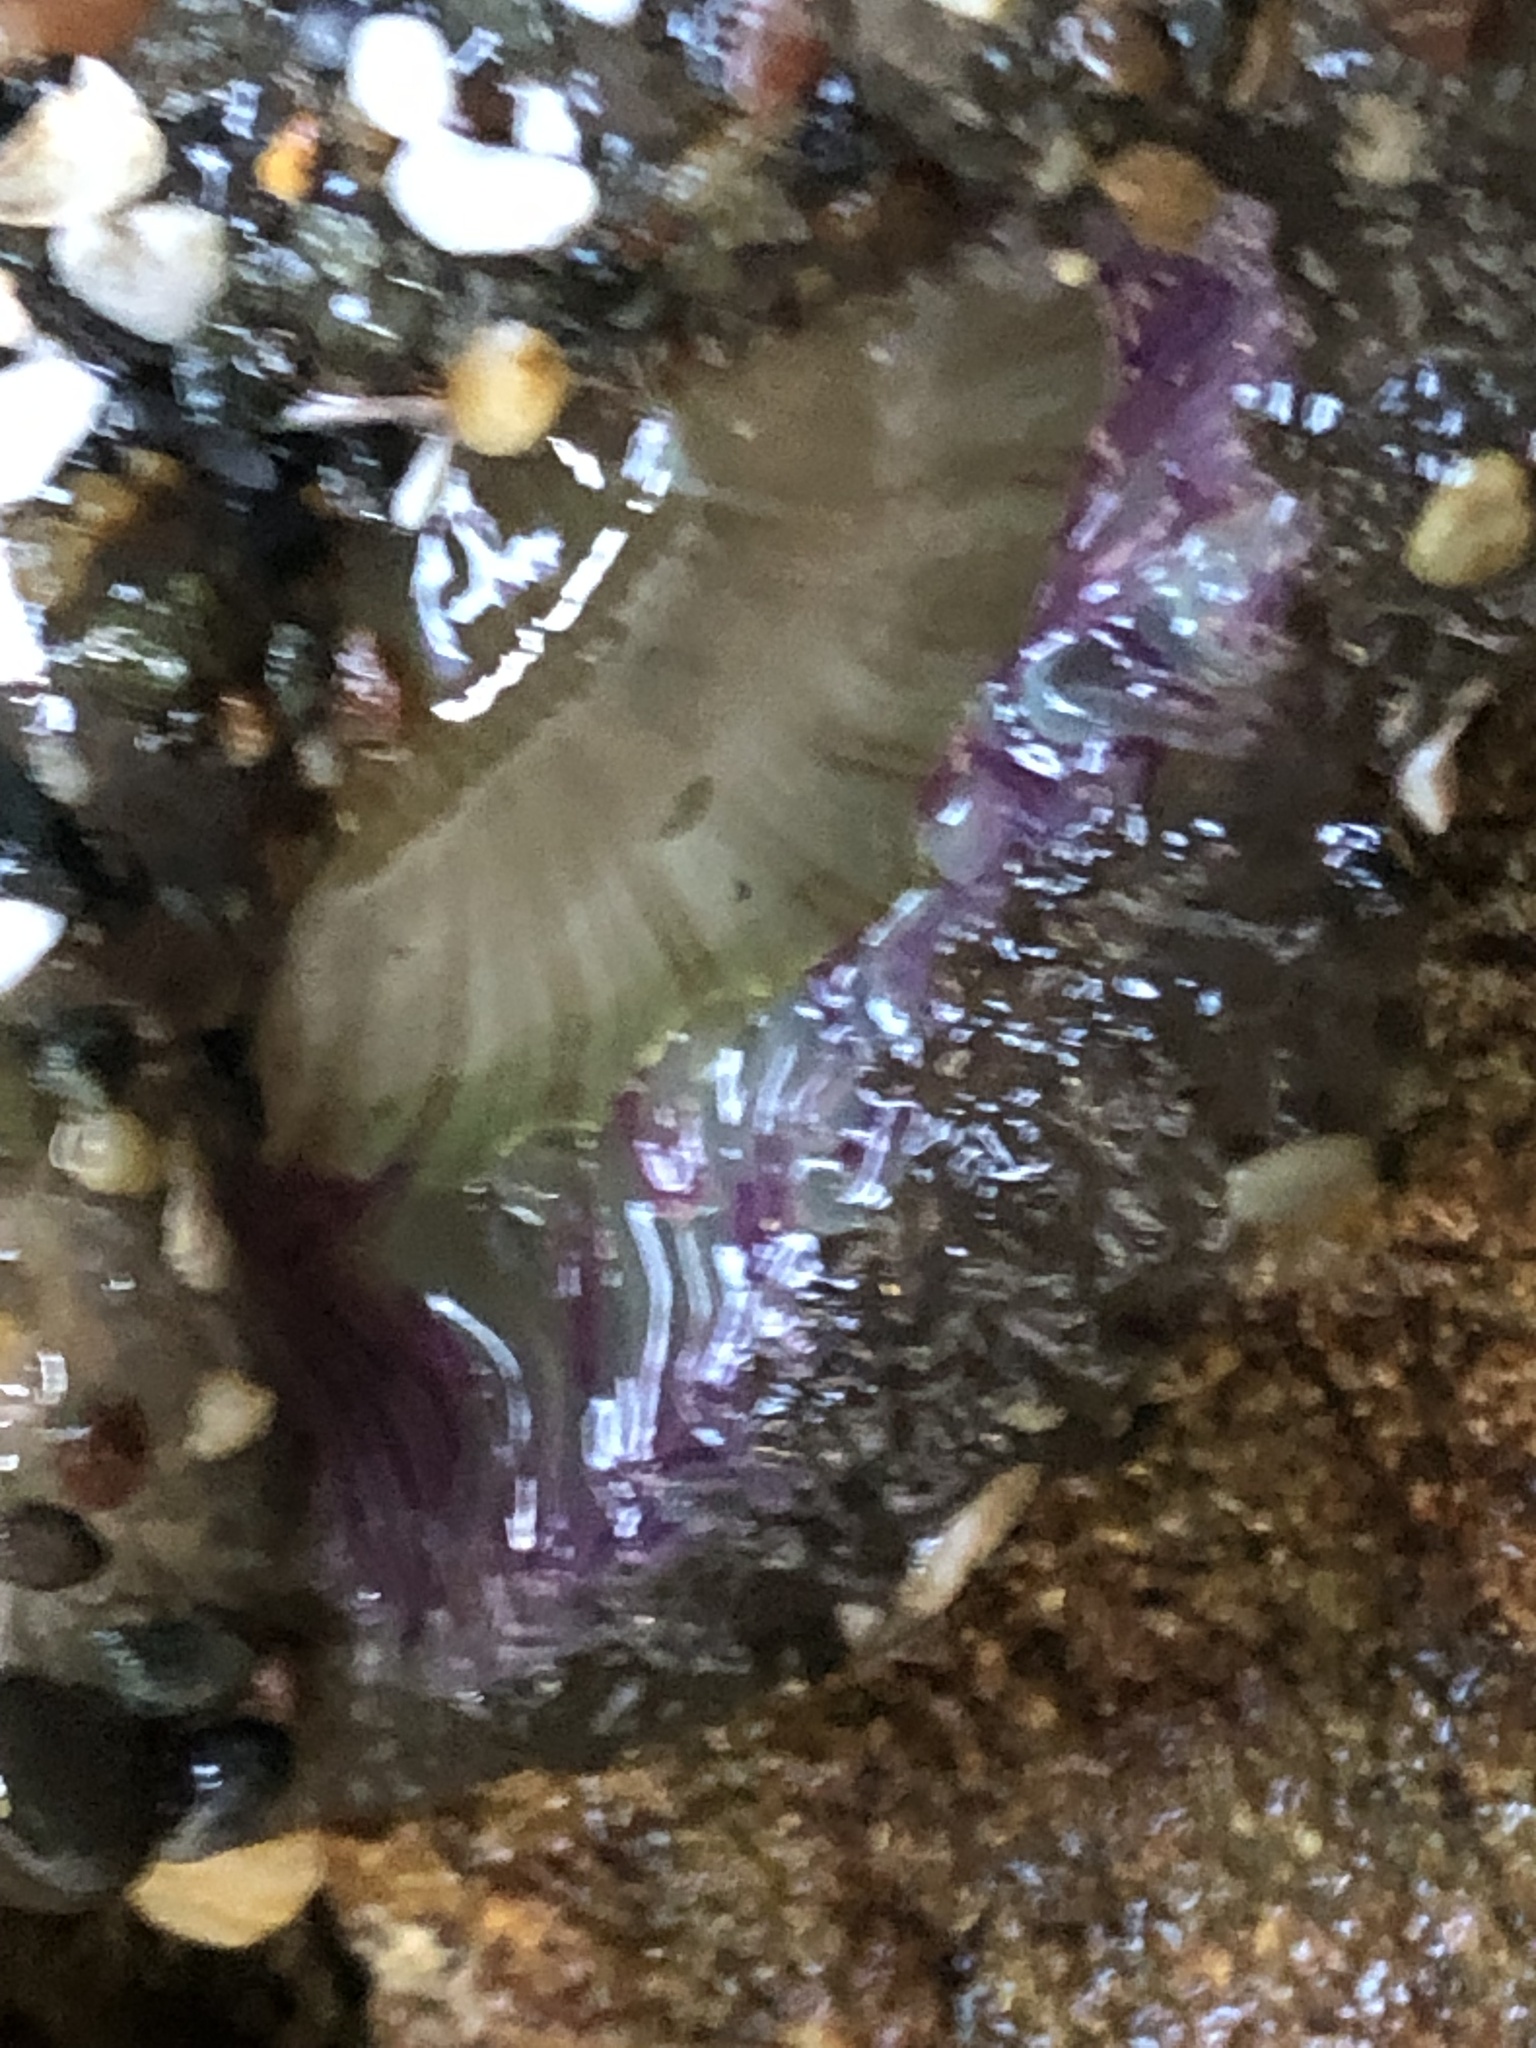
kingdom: Animalia
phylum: Cnidaria
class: Anthozoa
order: Actiniaria
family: Actiniidae
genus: Anthopleura
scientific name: Anthopleura sola
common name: Sun anemone
